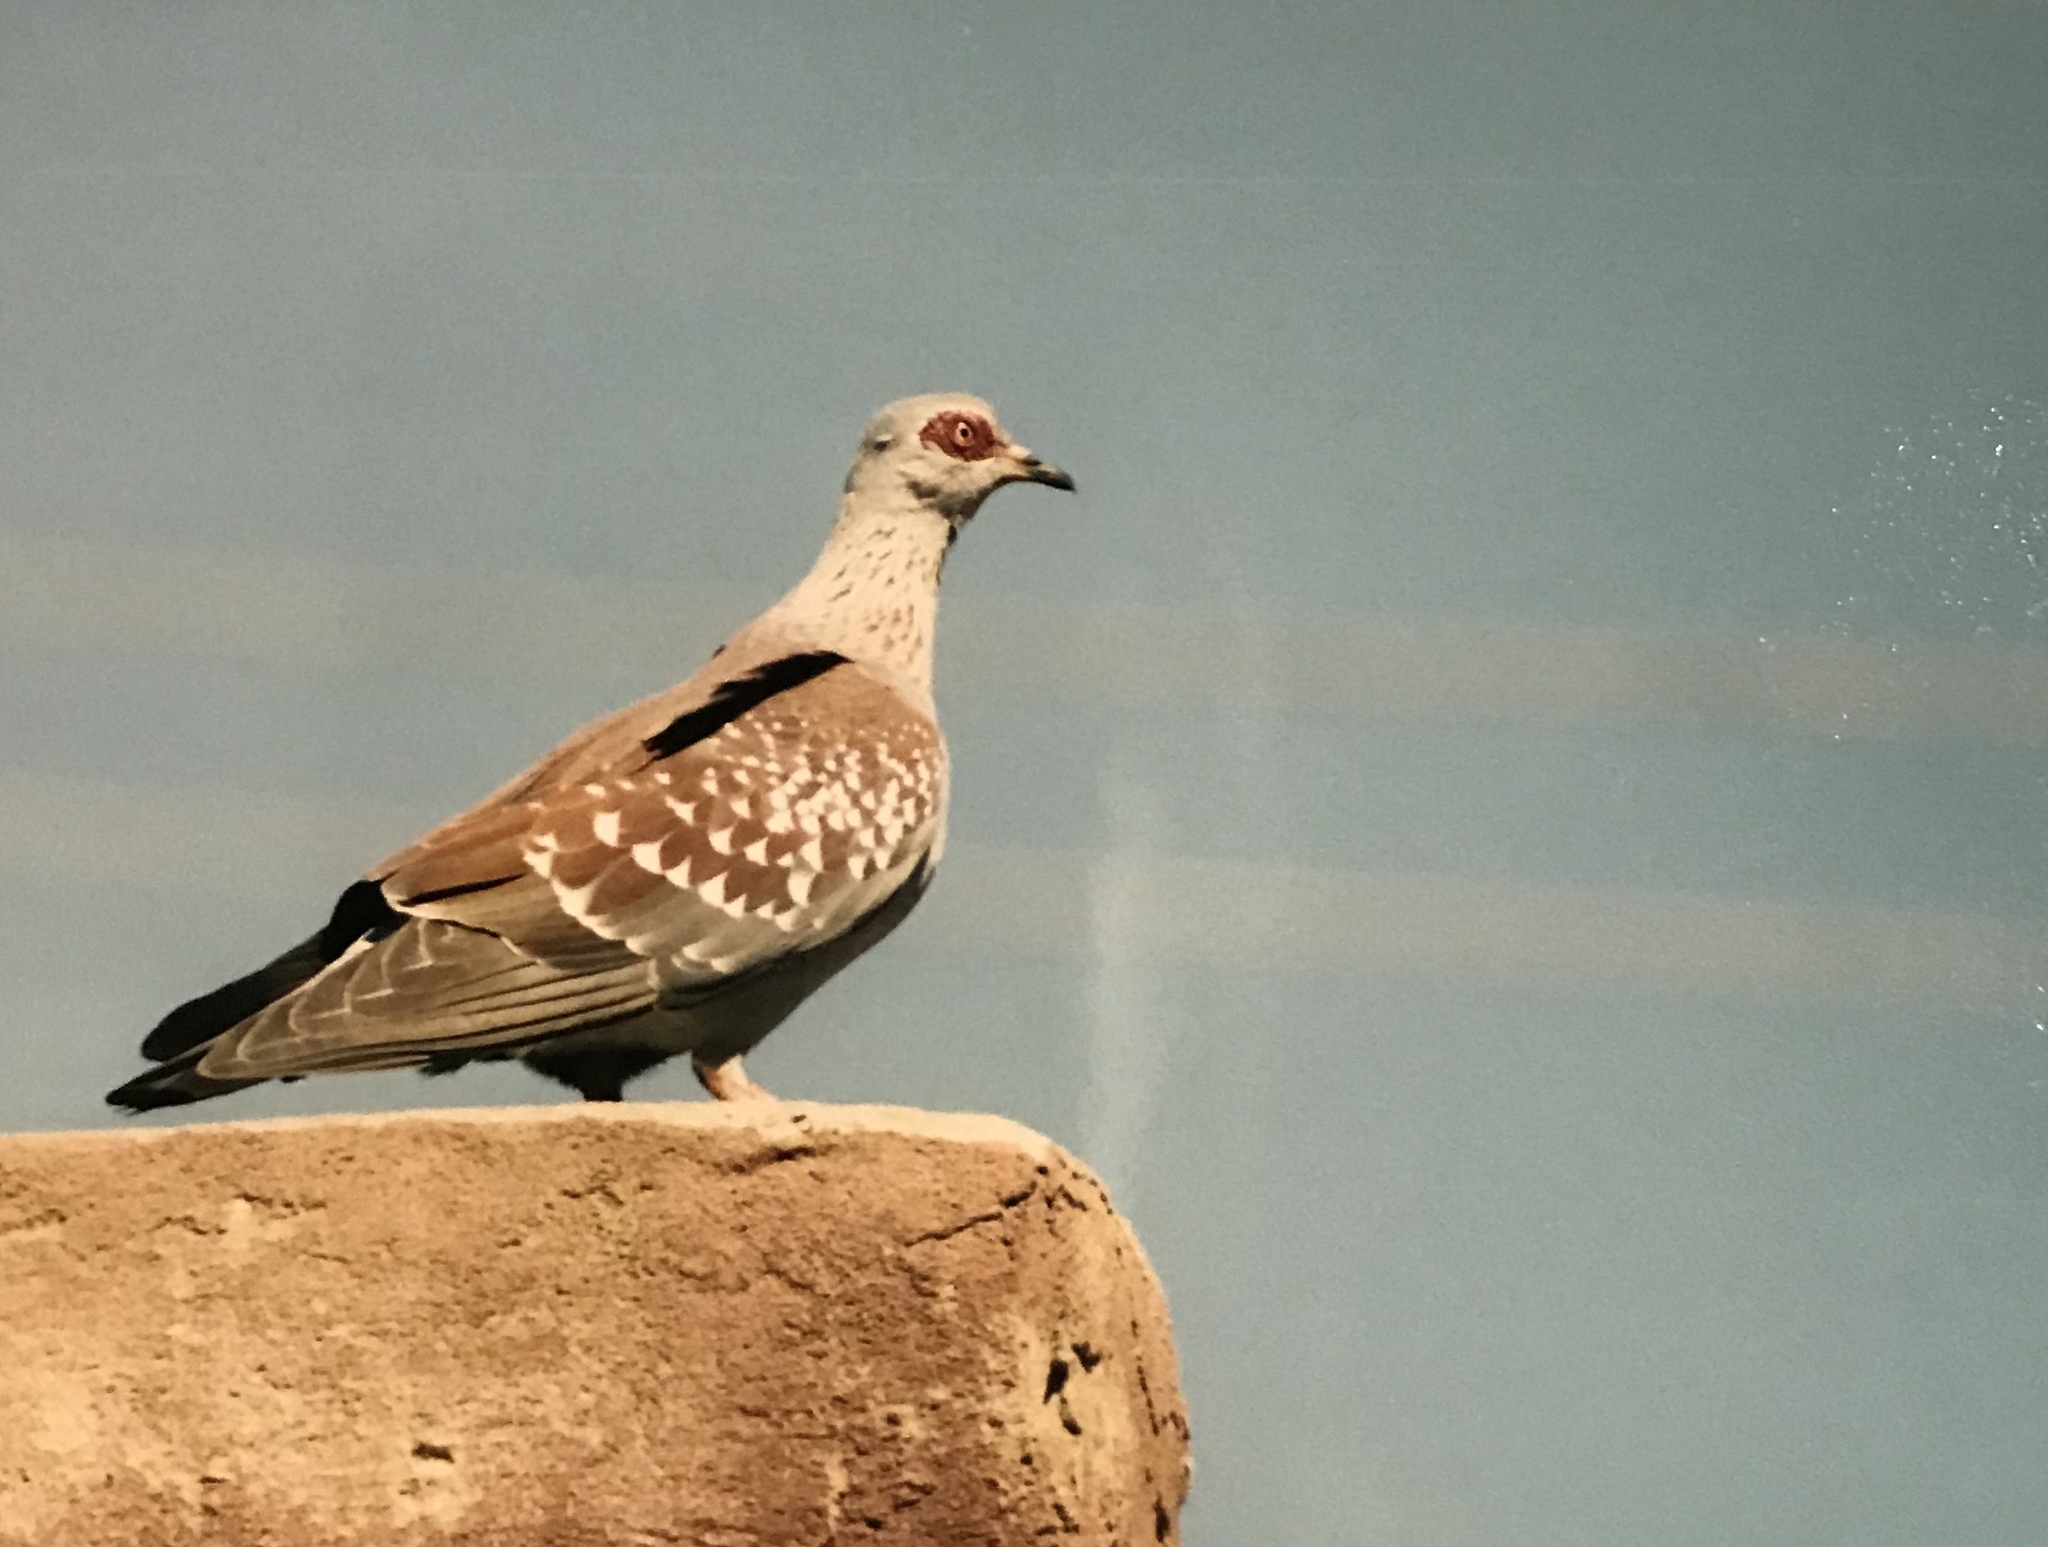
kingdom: Animalia
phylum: Chordata
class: Aves
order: Columbiformes
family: Columbidae
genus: Columba
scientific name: Columba guinea
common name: Speckled pigeon
